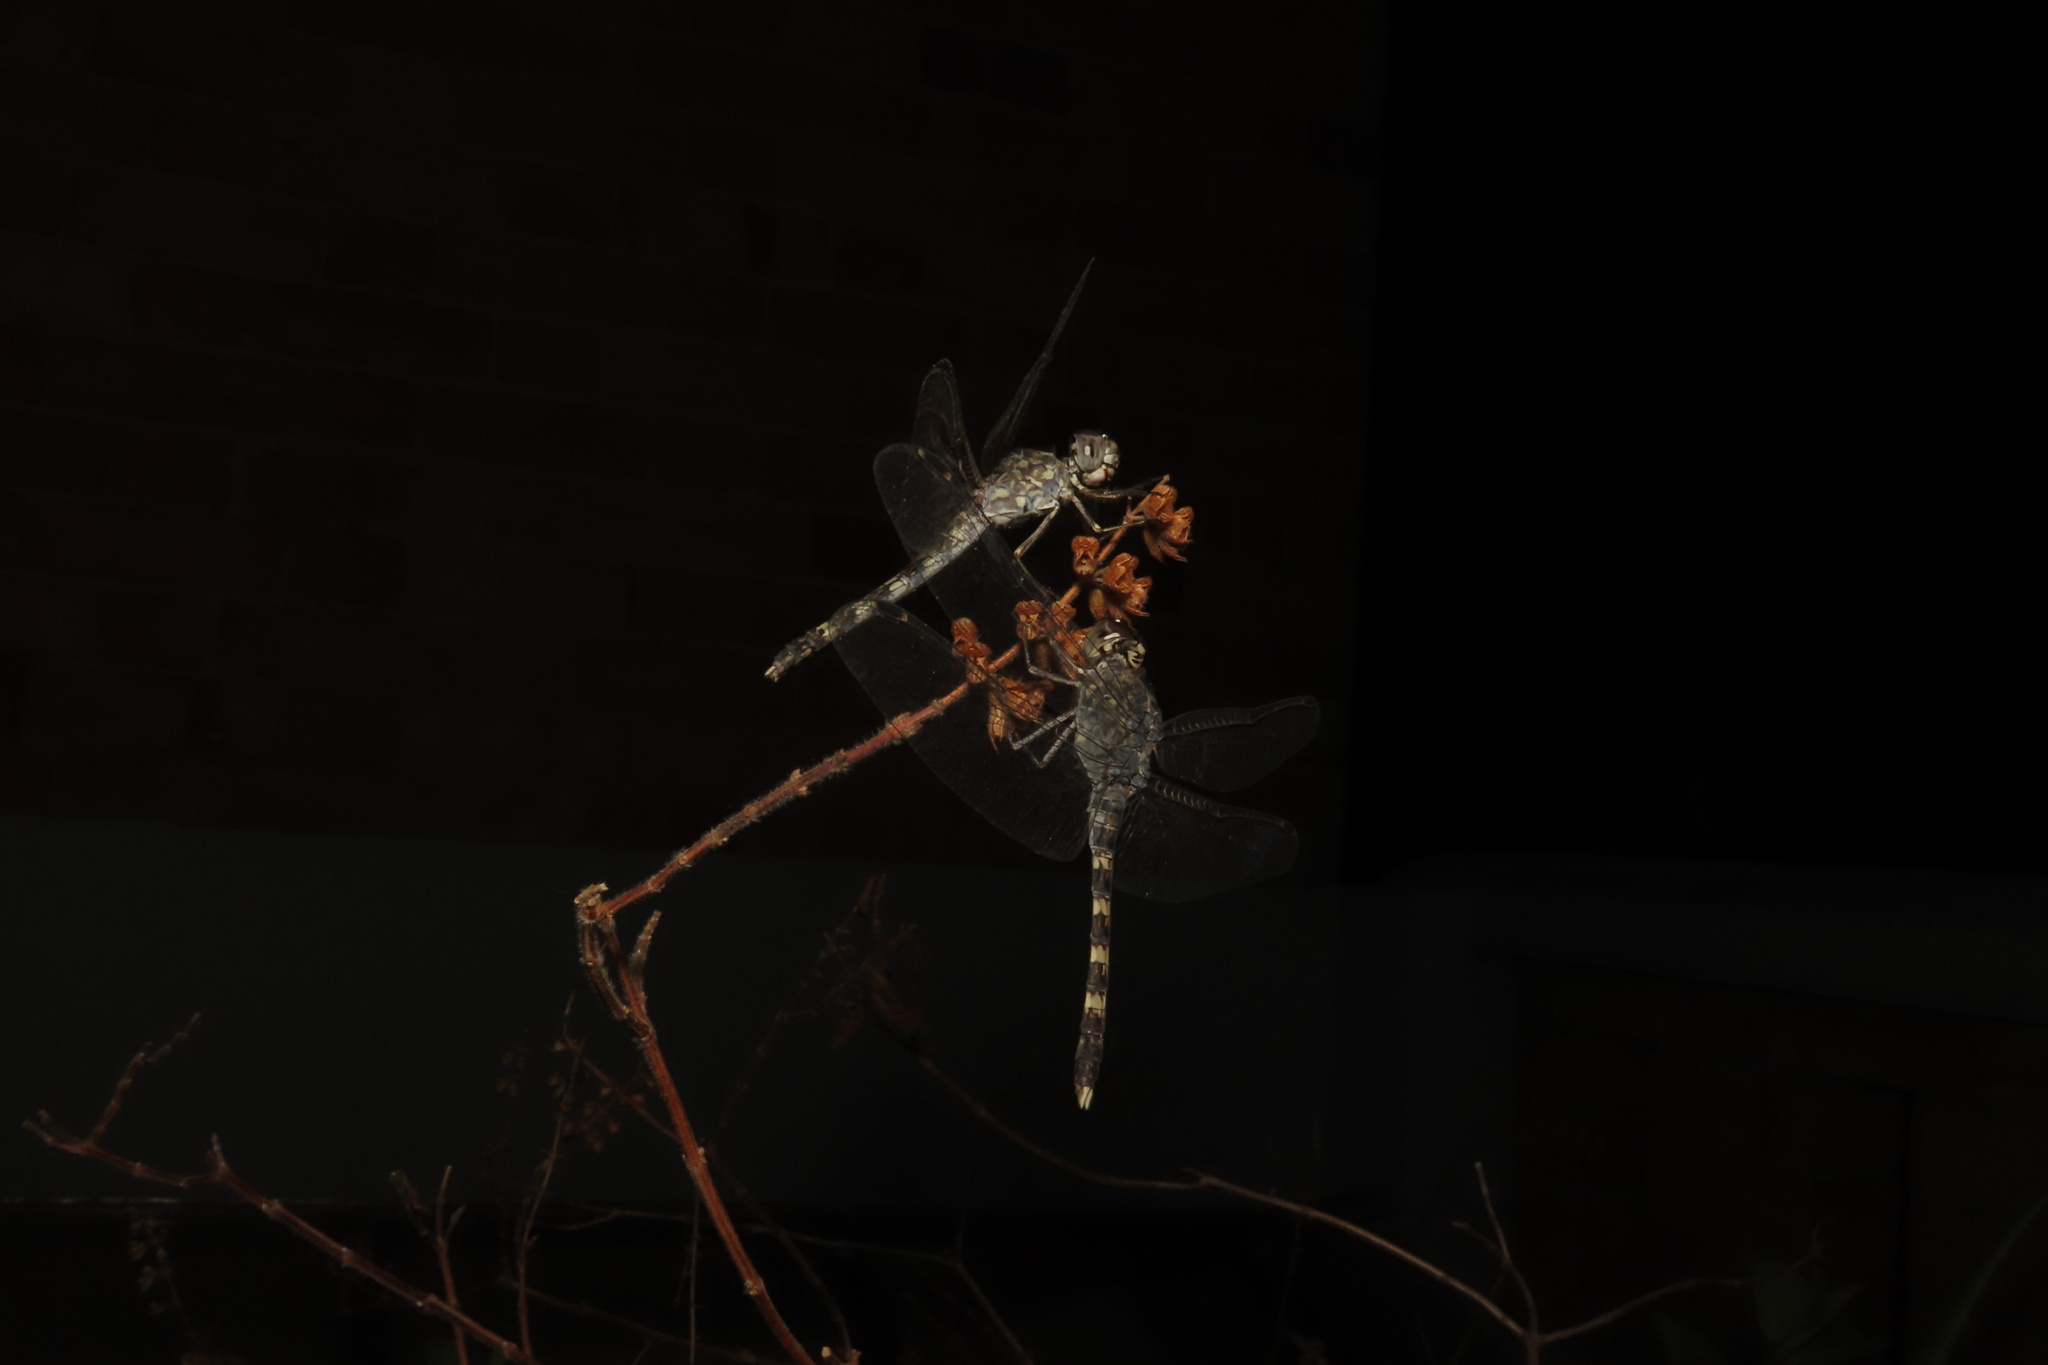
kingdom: Animalia
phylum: Arthropoda
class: Insecta
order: Odonata
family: Libellulidae
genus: Bradinopyga
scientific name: Bradinopyga geminata
